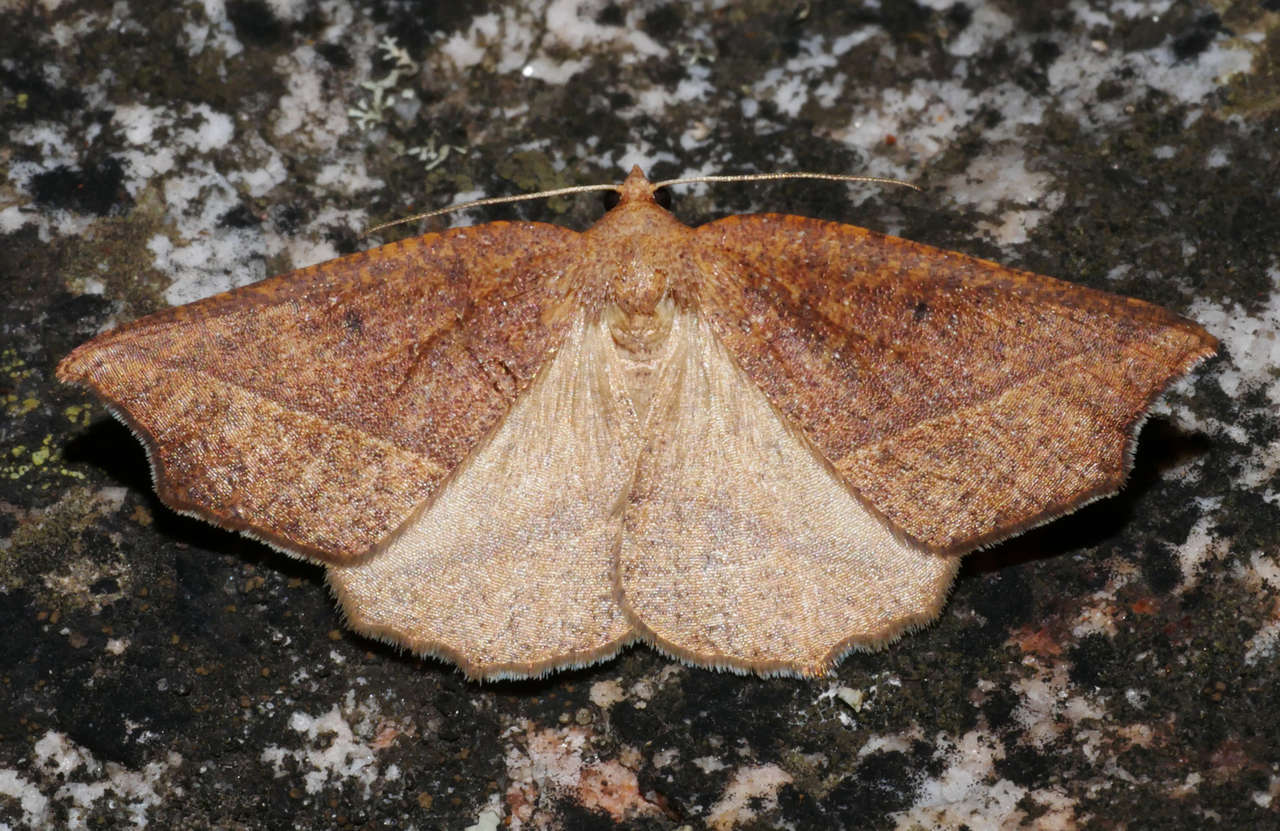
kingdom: Animalia
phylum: Arthropoda
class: Insecta
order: Lepidoptera
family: Geometridae
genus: Microsema
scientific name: Microsema
